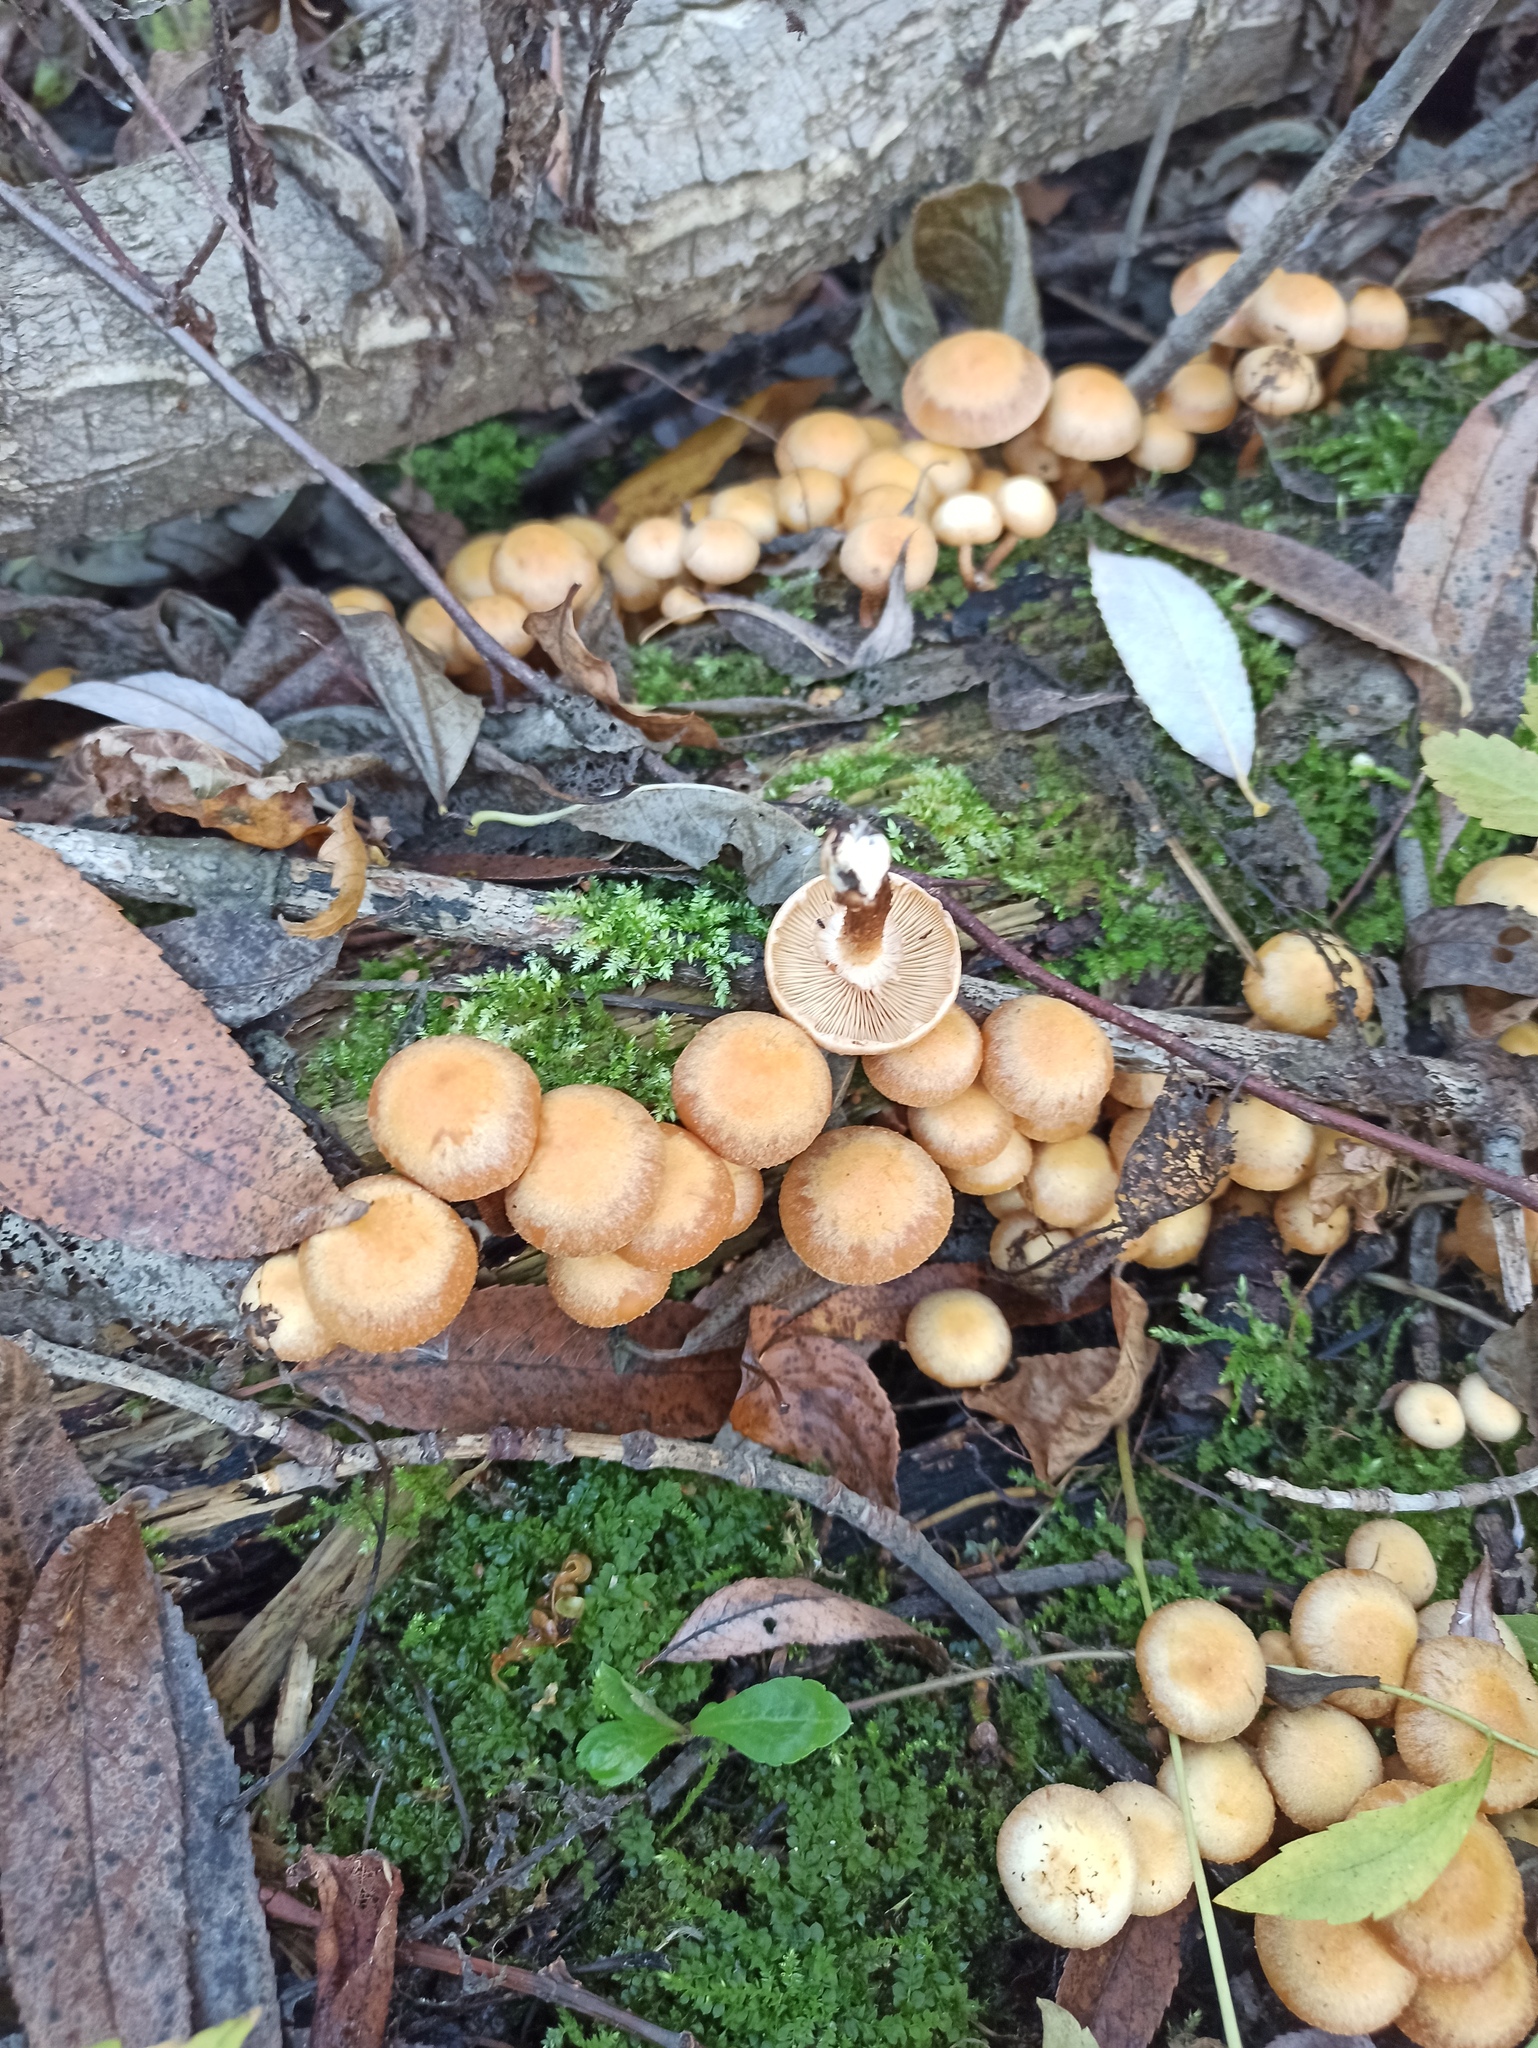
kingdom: Fungi
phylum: Basidiomycota
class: Agaricomycetes
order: Agaricales
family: Strophariaceae
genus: Kuehneromyces
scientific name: Kuehneromyces mutabilis
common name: Sheathed woodtuft
